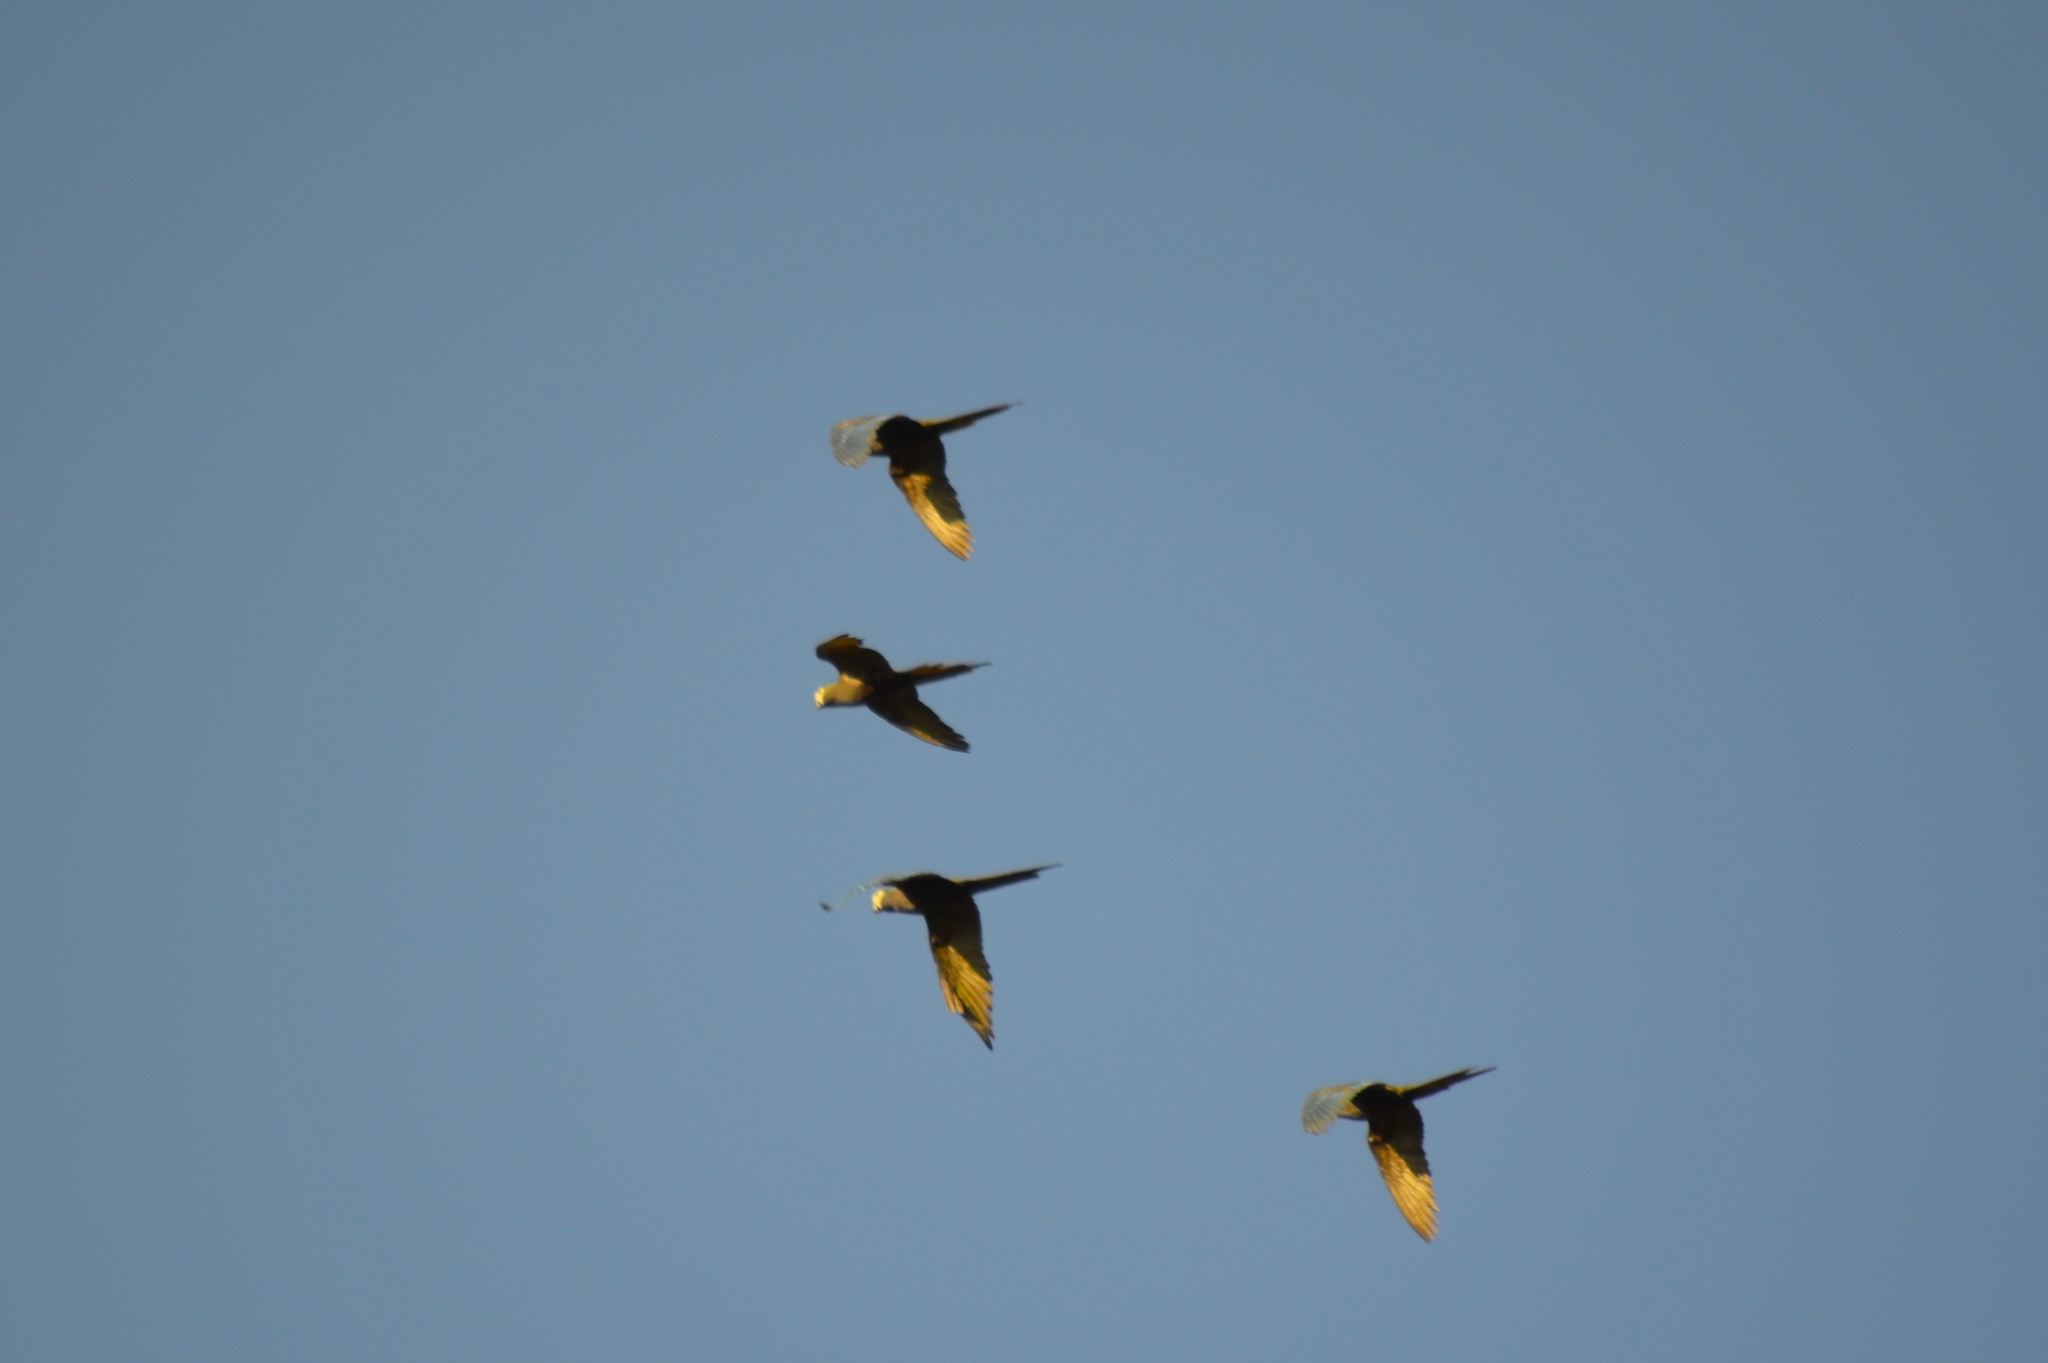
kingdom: Animalia
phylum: Chordata
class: Aves
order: Psittaciformes
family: Psittacidae
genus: Orthopsittaca
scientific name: Orthopsittaca manilata
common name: Red-bellied macaw
